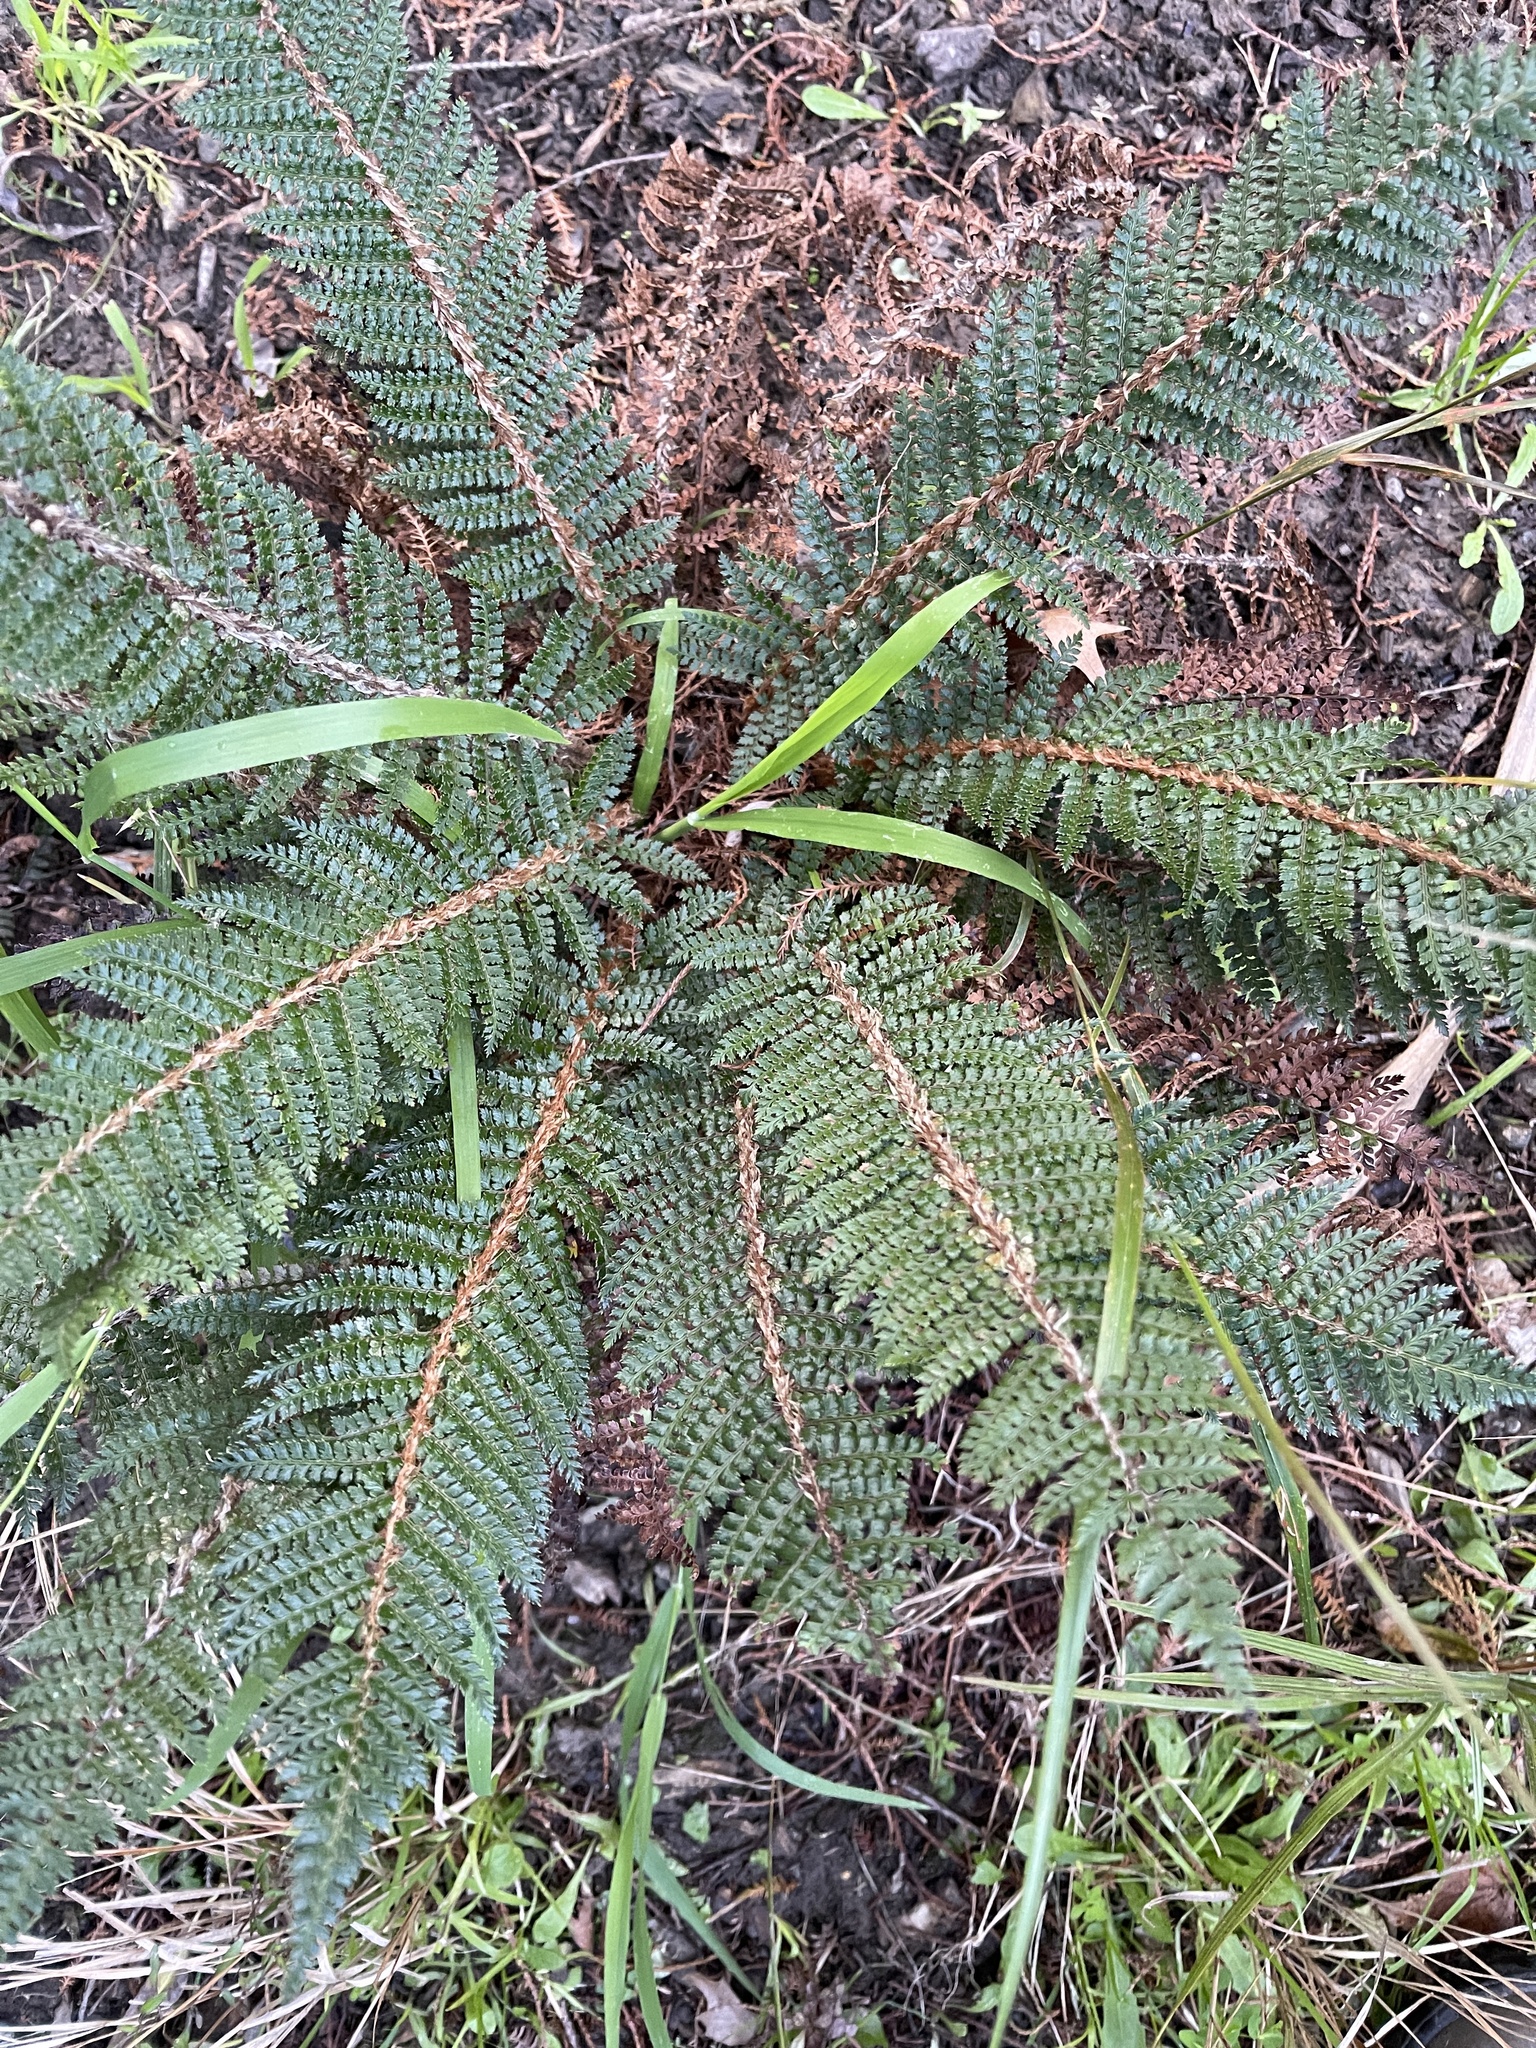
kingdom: Plantae
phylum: Tracheophyta
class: Polypodiopsida
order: Polypodiales
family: Dryopteridaceae
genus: Polystichum
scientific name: Polystichum vestitum
